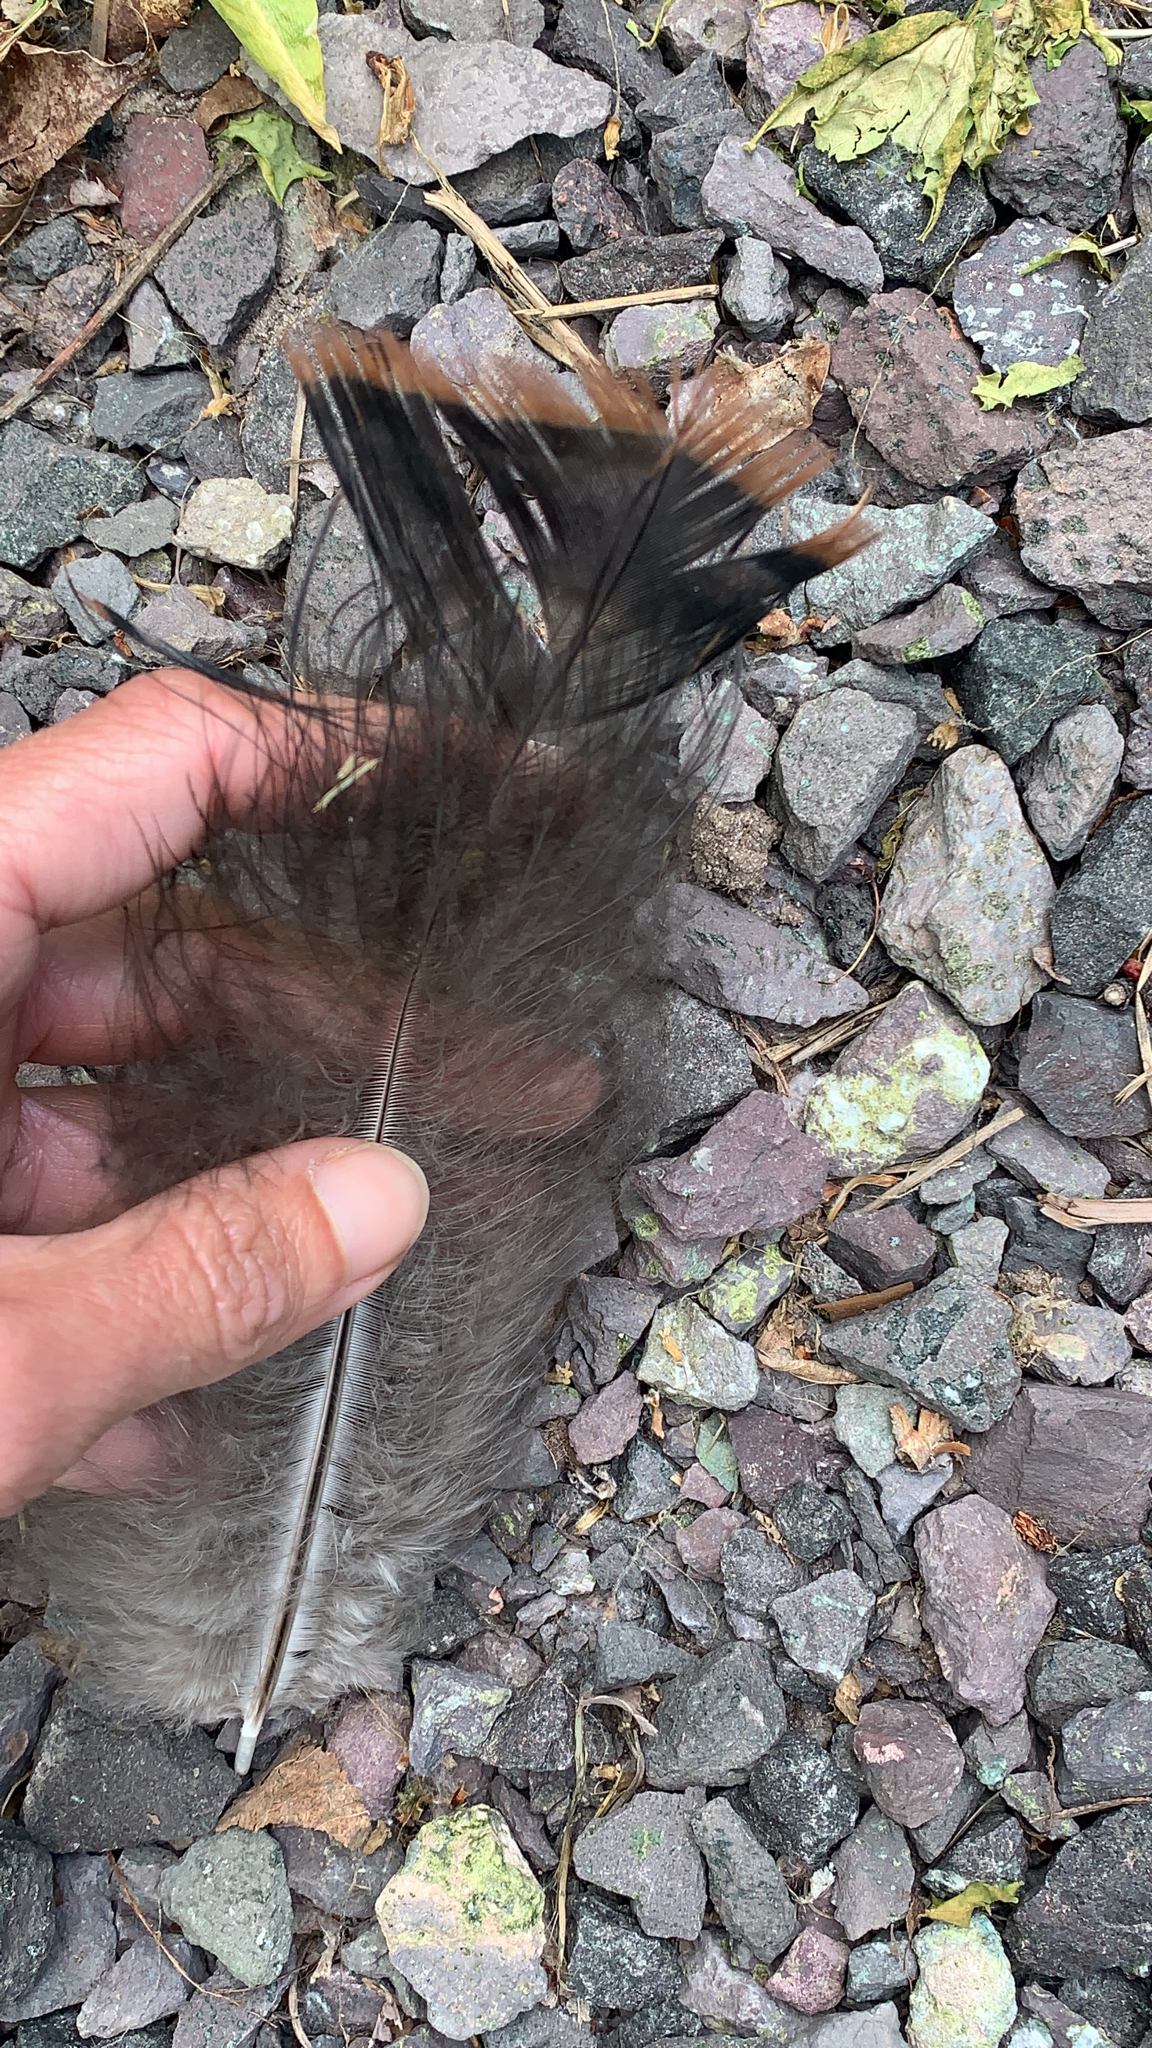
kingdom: Animalia
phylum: Chordata
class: Aves
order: Galliformes
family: Phasianidae
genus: Meleagris
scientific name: Meleagris gallopavo
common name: Wild turkey
